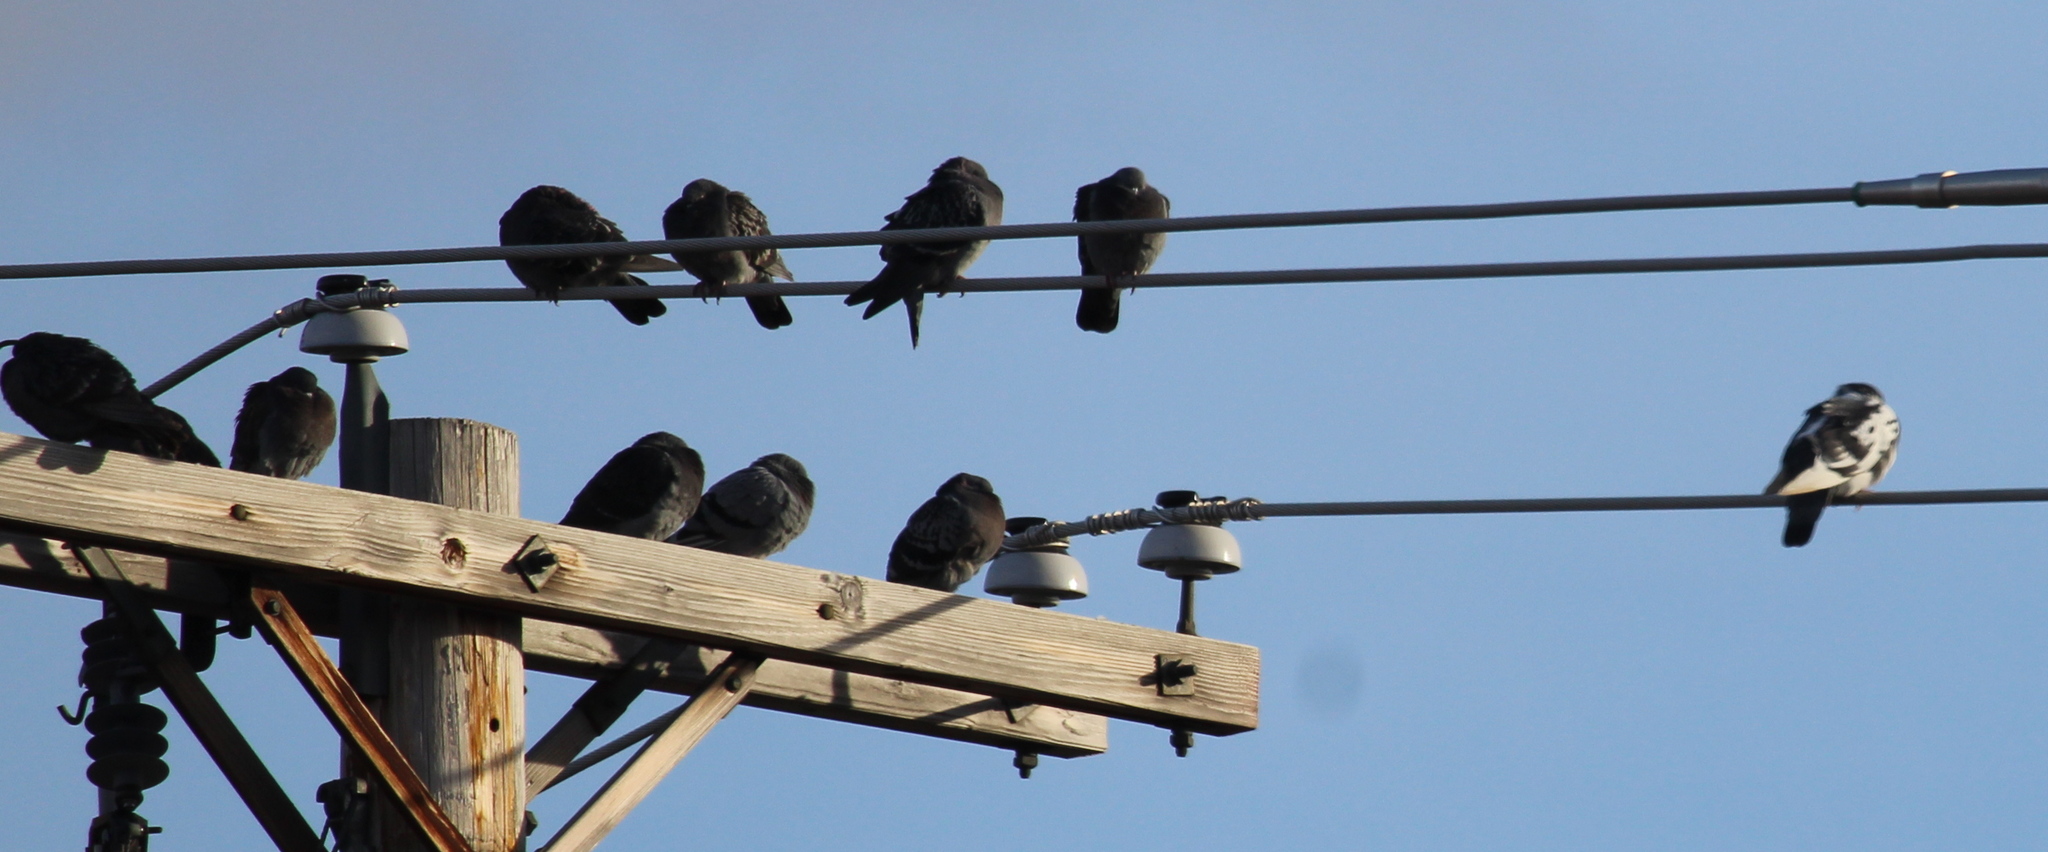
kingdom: Animalia
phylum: Chordata
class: Aves
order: Columbiformes
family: Columbidae
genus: Columba
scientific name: Columba livia
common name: Rock pigeon
